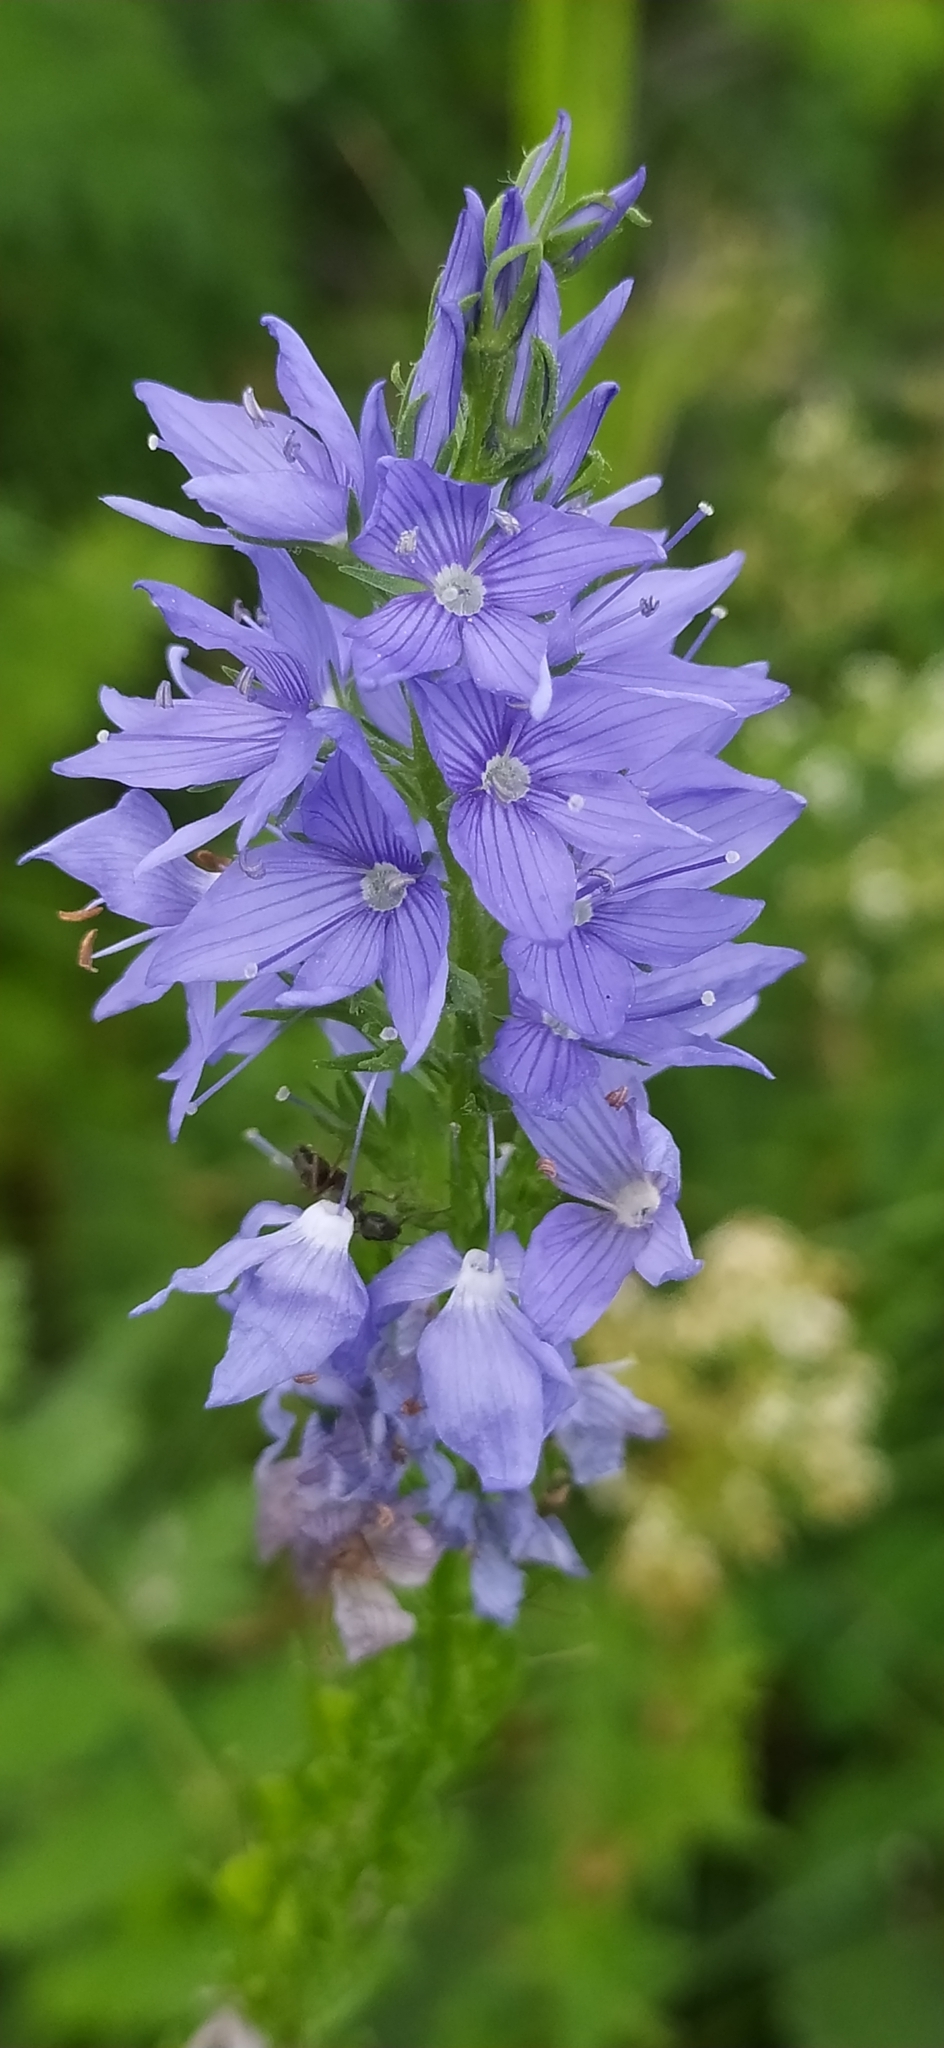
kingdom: Plantae
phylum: Tracheophyta
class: Magnoliopsida
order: Lamiales
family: Plantaginaceae
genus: Veronica
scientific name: Veronica teucrium
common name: Large speedwell
